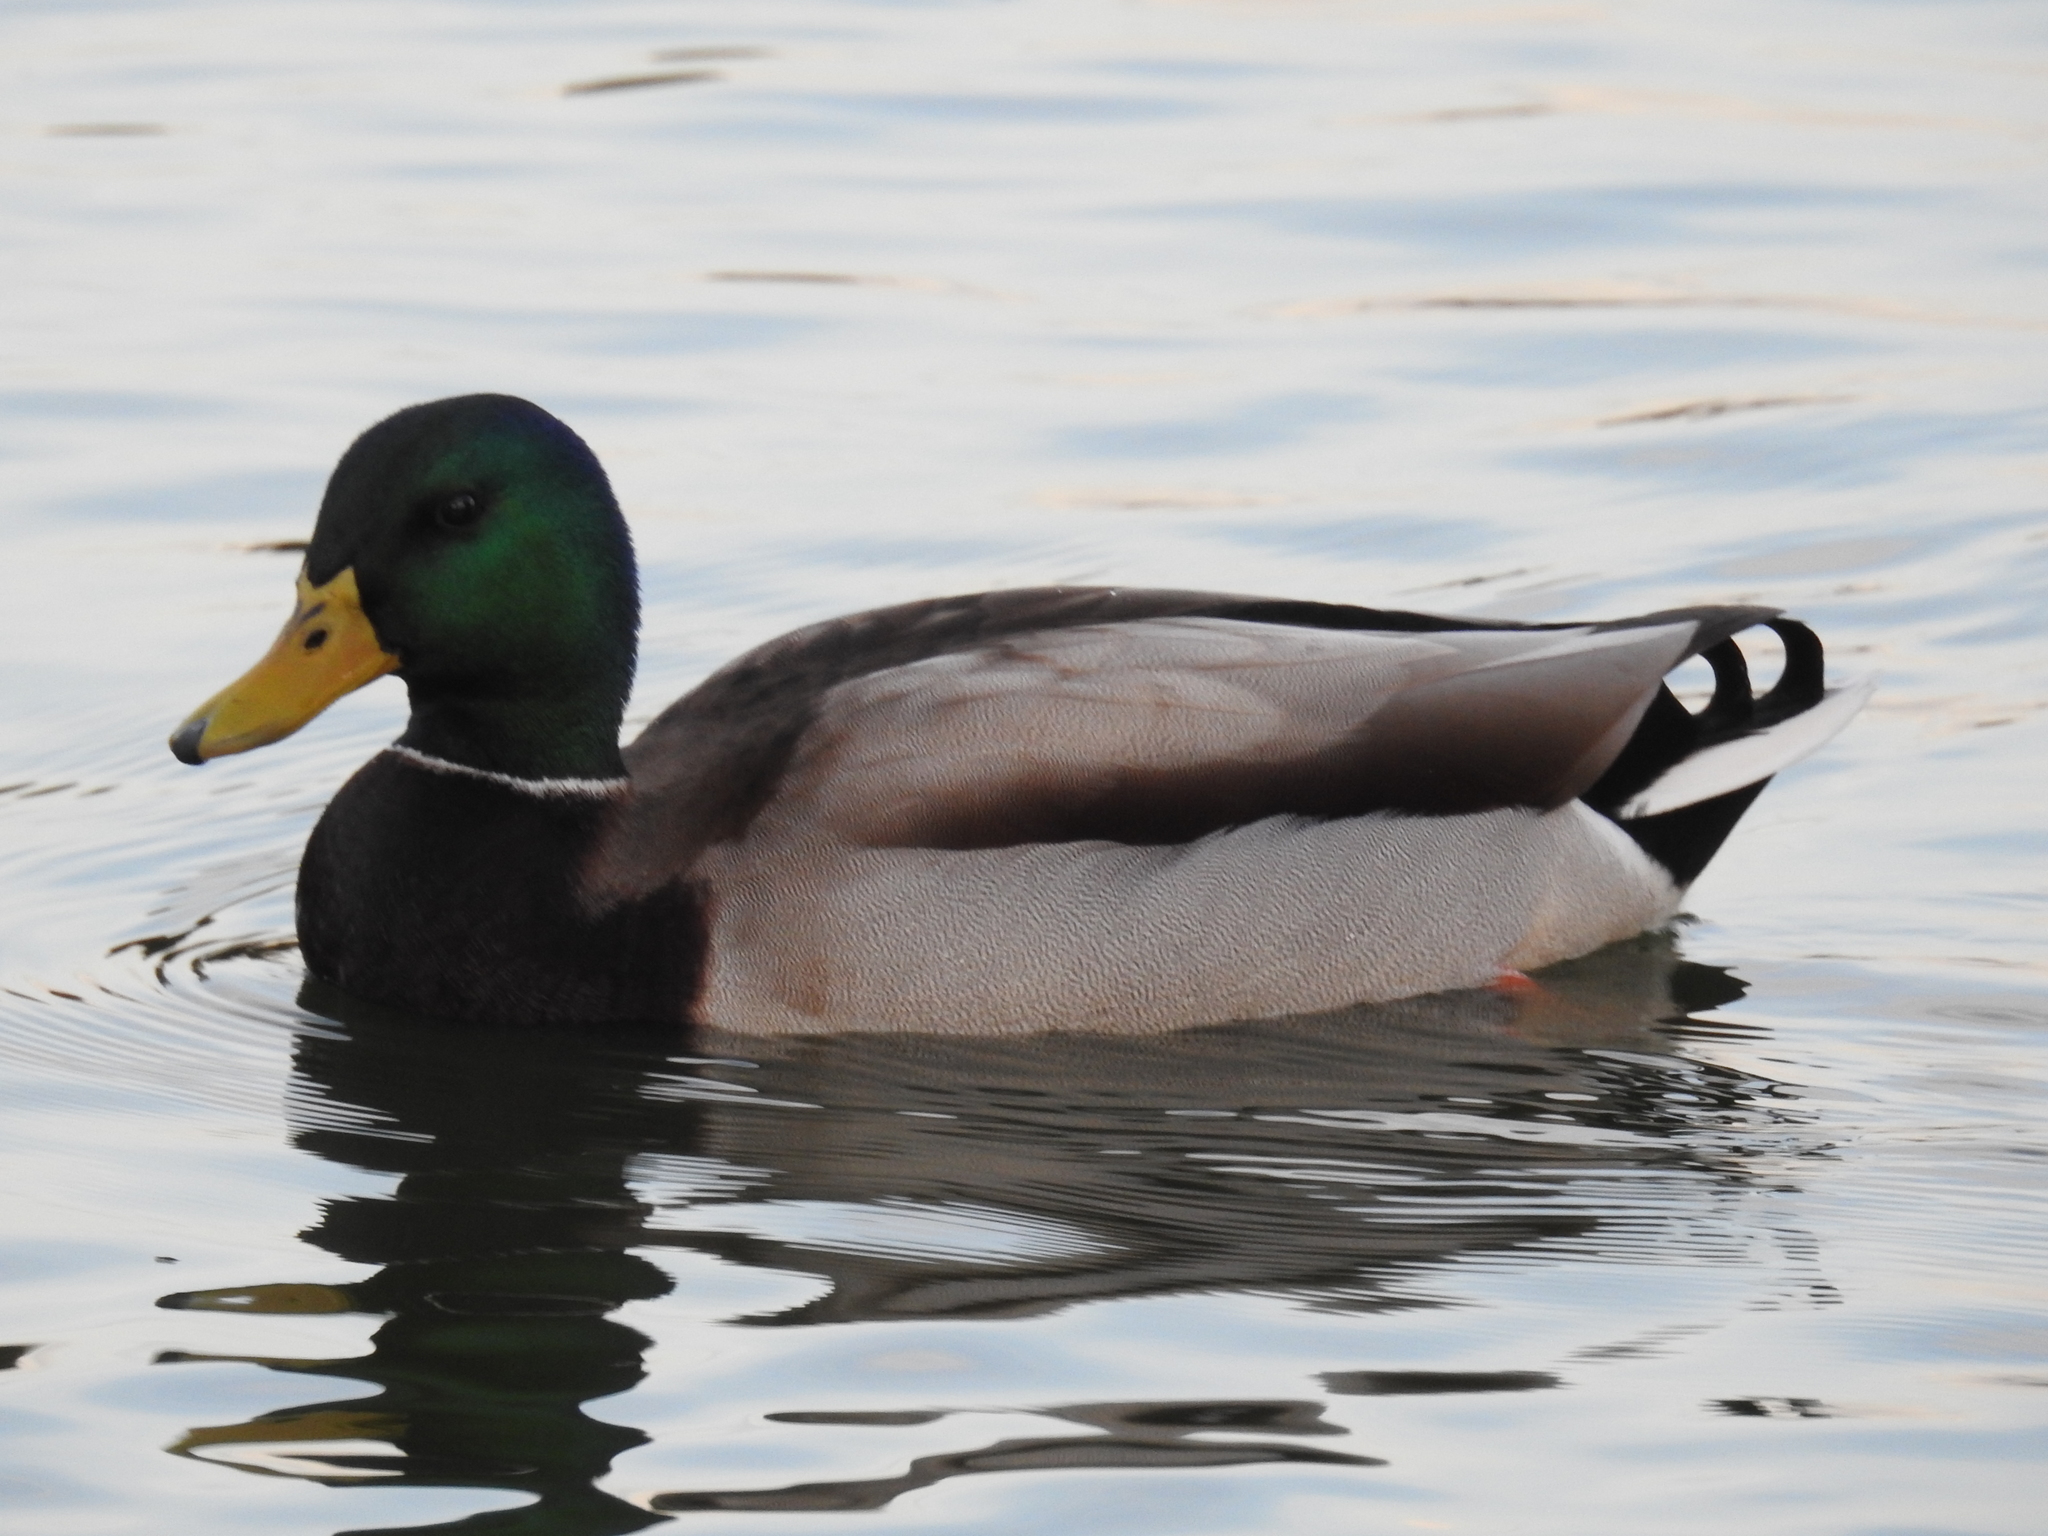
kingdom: Animalia
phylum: Chordata
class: Aves
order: Anseriformes
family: Anatidae
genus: Anas
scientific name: Anas platyrhynchos
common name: Mallard
